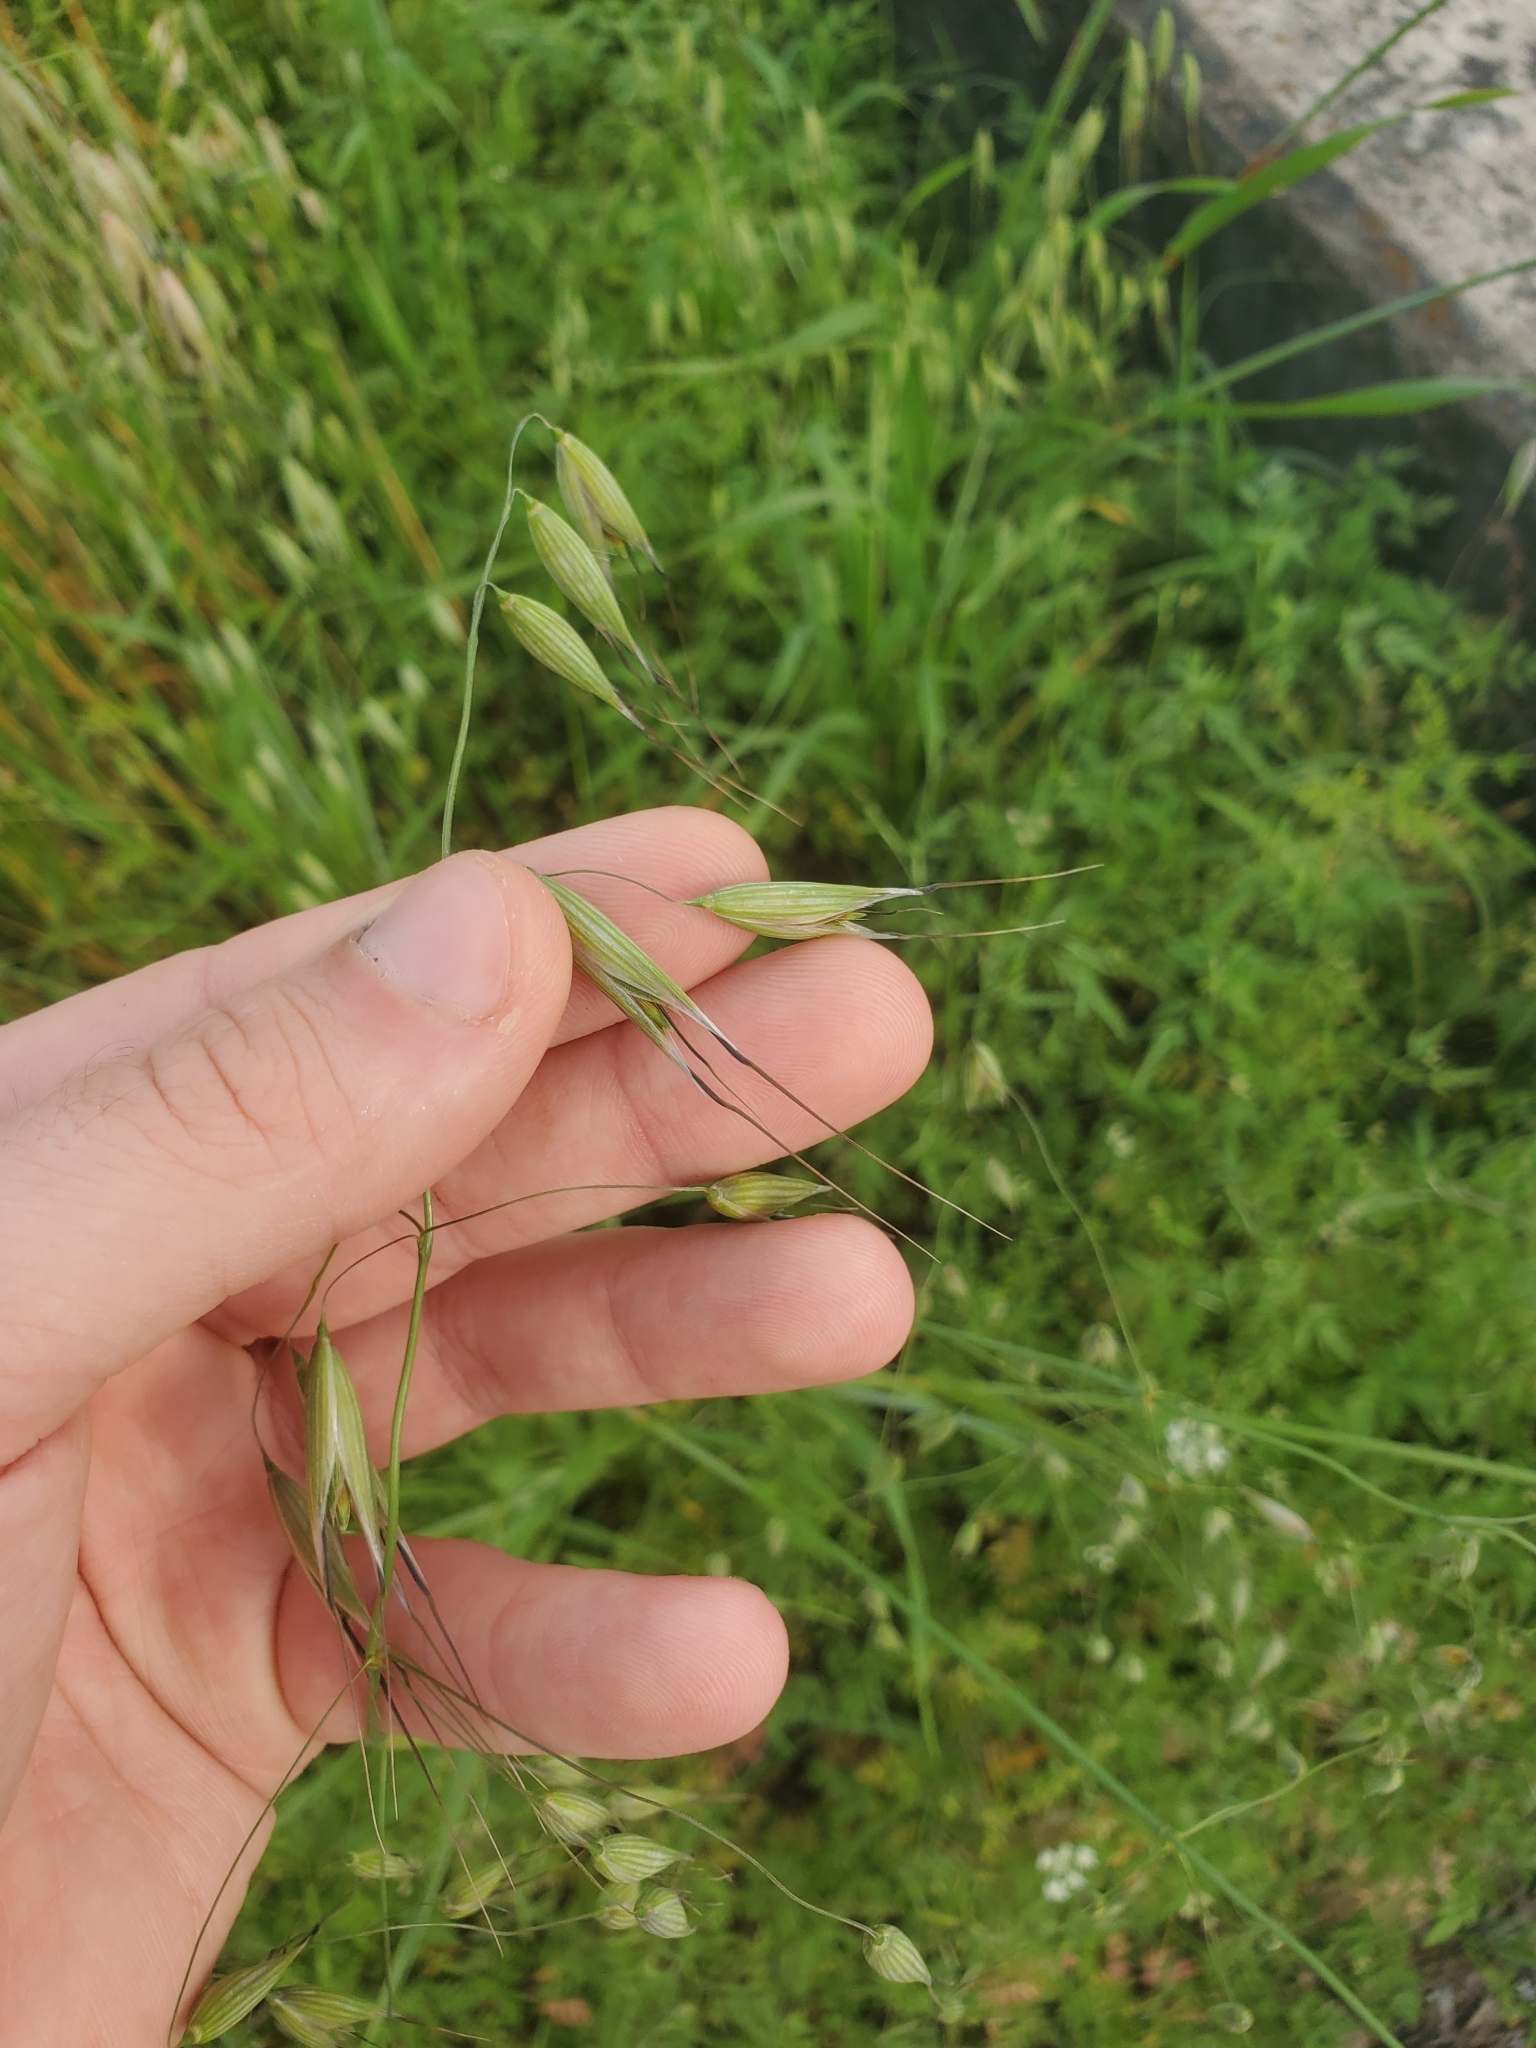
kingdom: Plantae
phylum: Tracheophyta
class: Liliopsida
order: Poales
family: Poaceae
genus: Avena
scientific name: Avena fatua
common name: Wild oat
